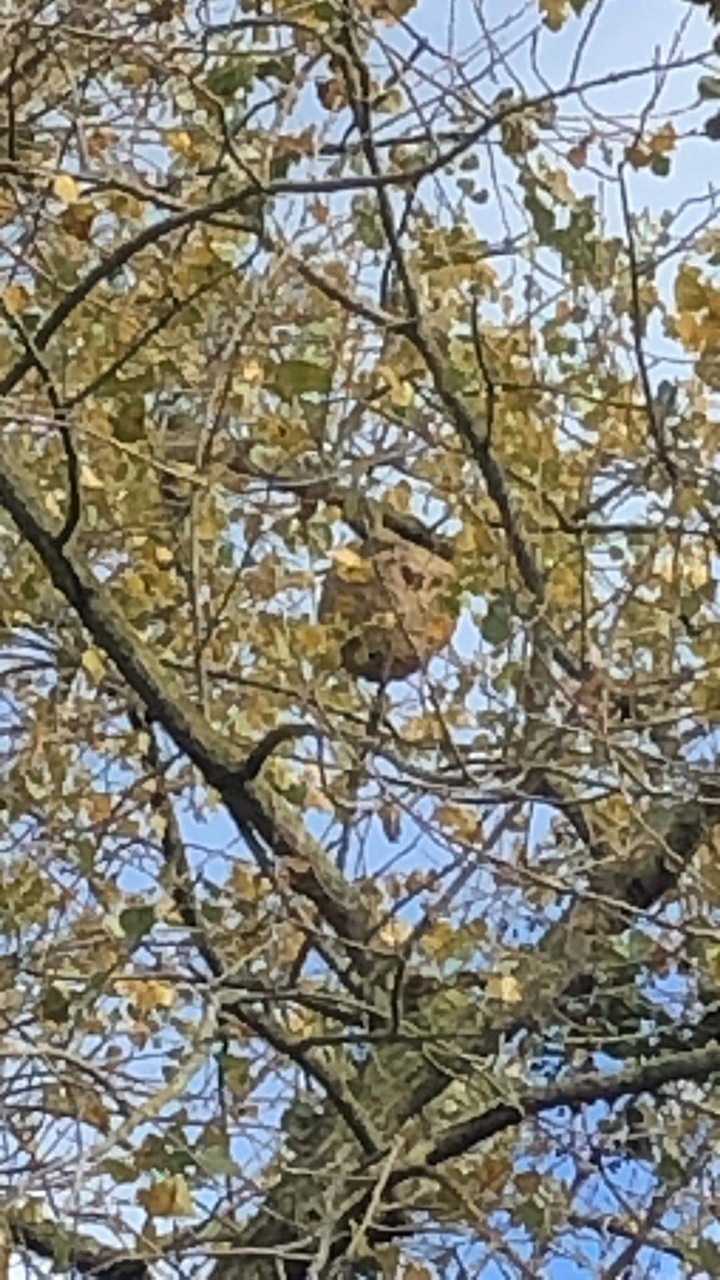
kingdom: Animalia
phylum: Arthropoda
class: Insecta
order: Hymenoptera
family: Vespidae
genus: Vespa
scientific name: Vespa velutina
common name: Asian hornet
